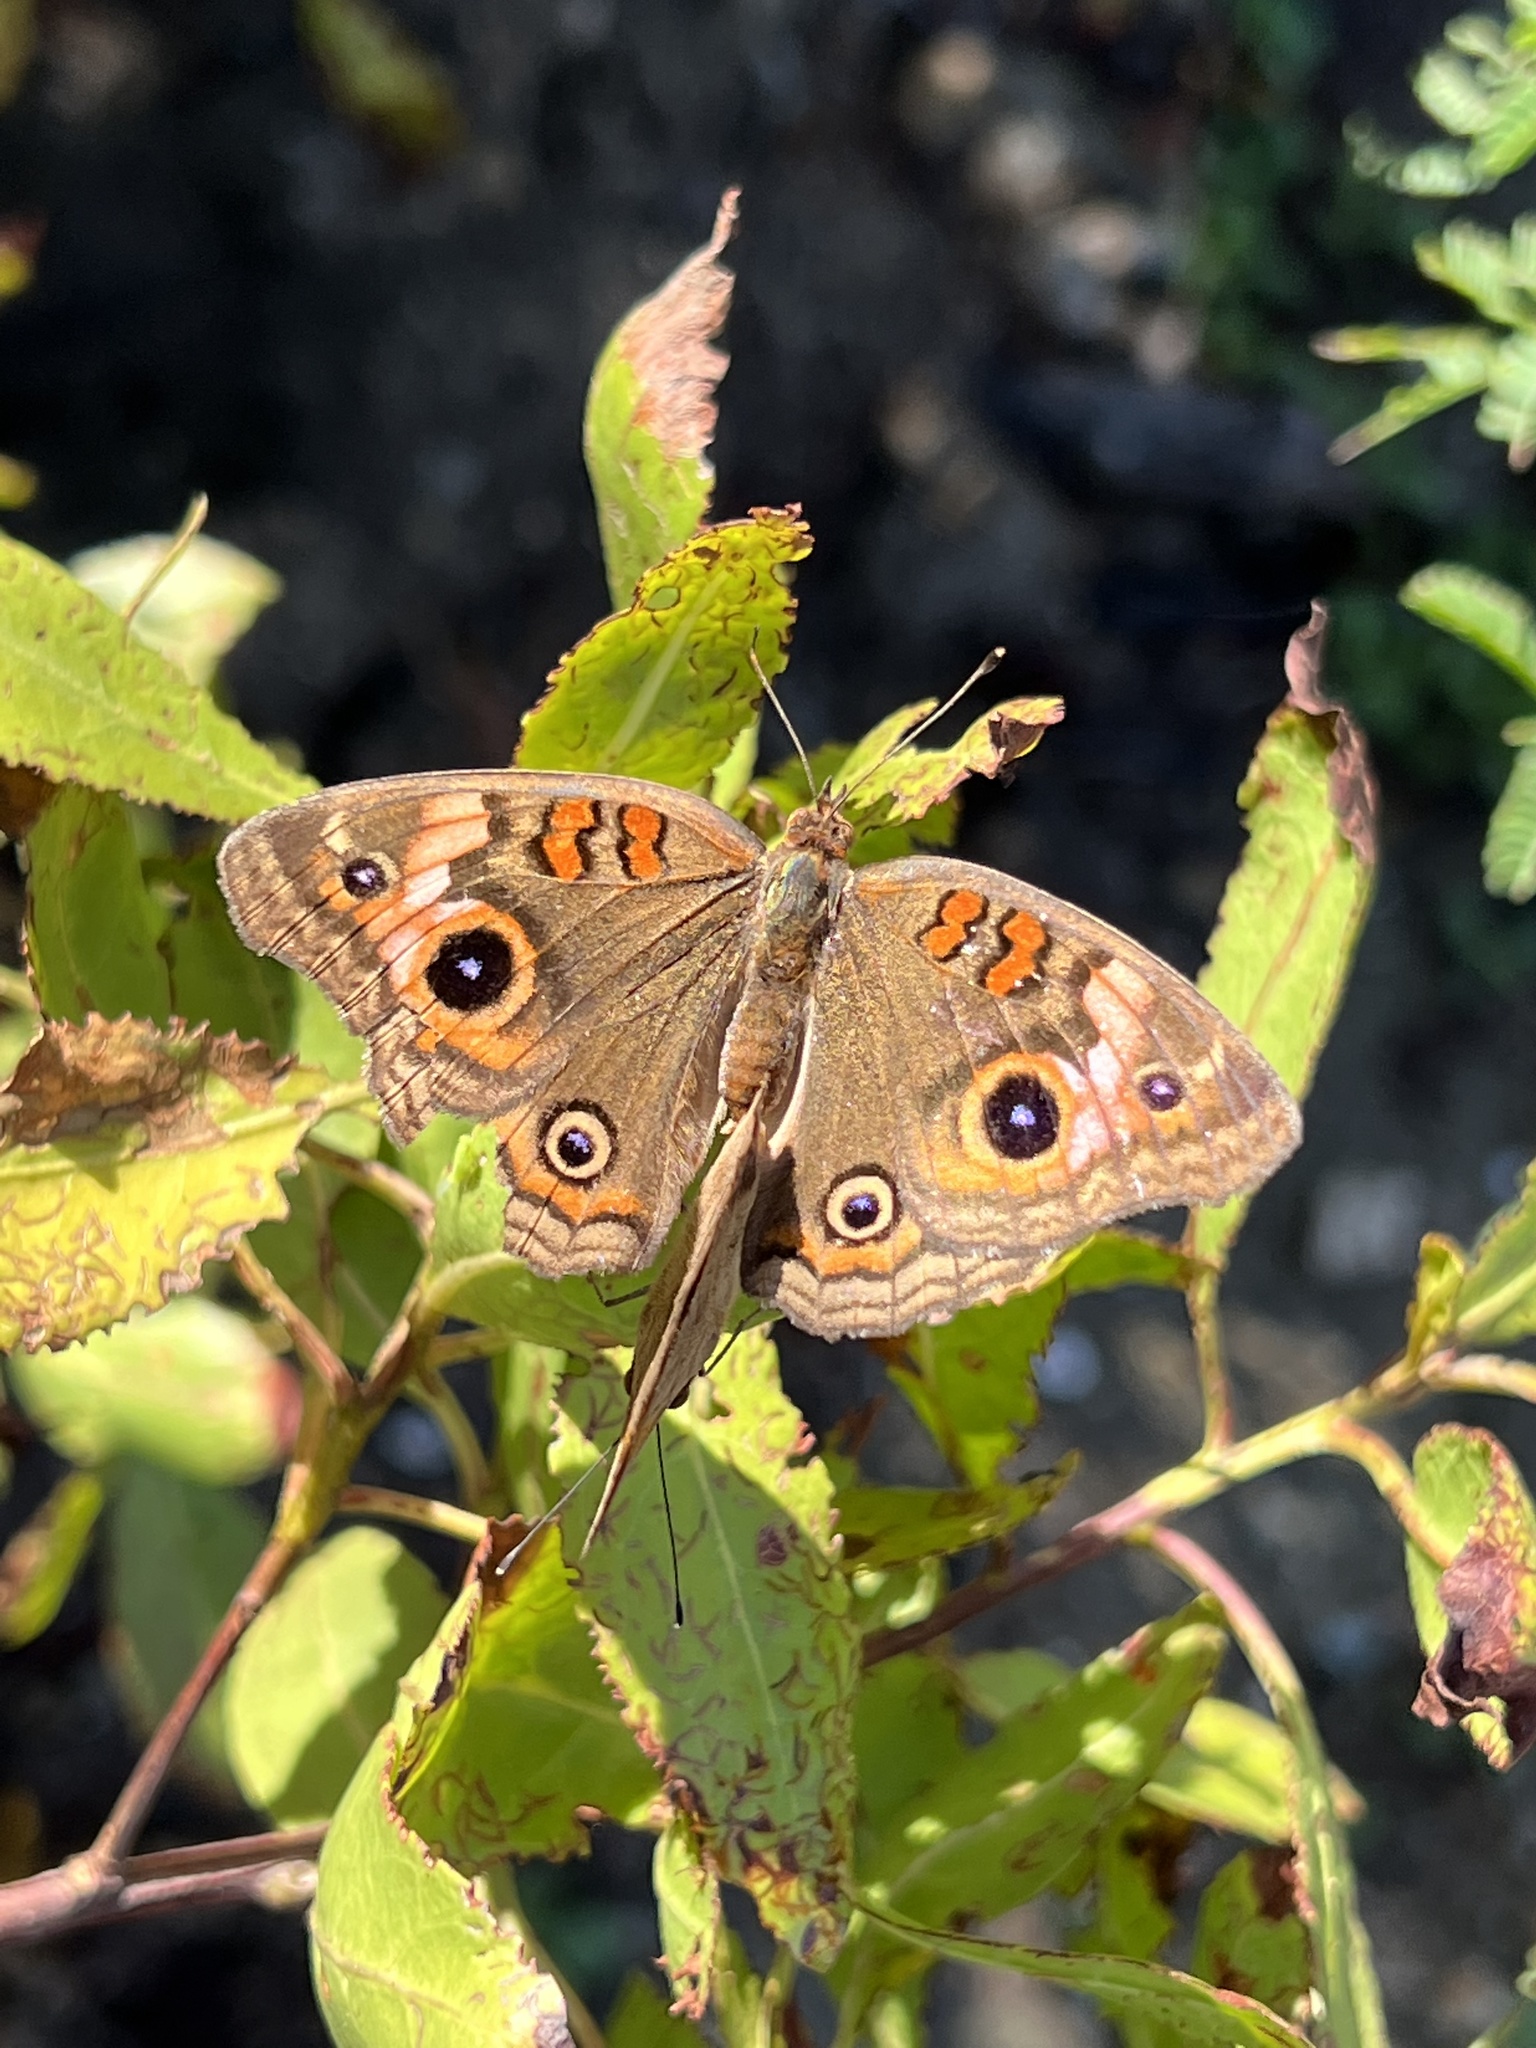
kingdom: Animalia
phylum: Arthropoda
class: Insecta
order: Lepidoptera
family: Nymphalidae
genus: Junonia
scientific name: Junonia lavinia
